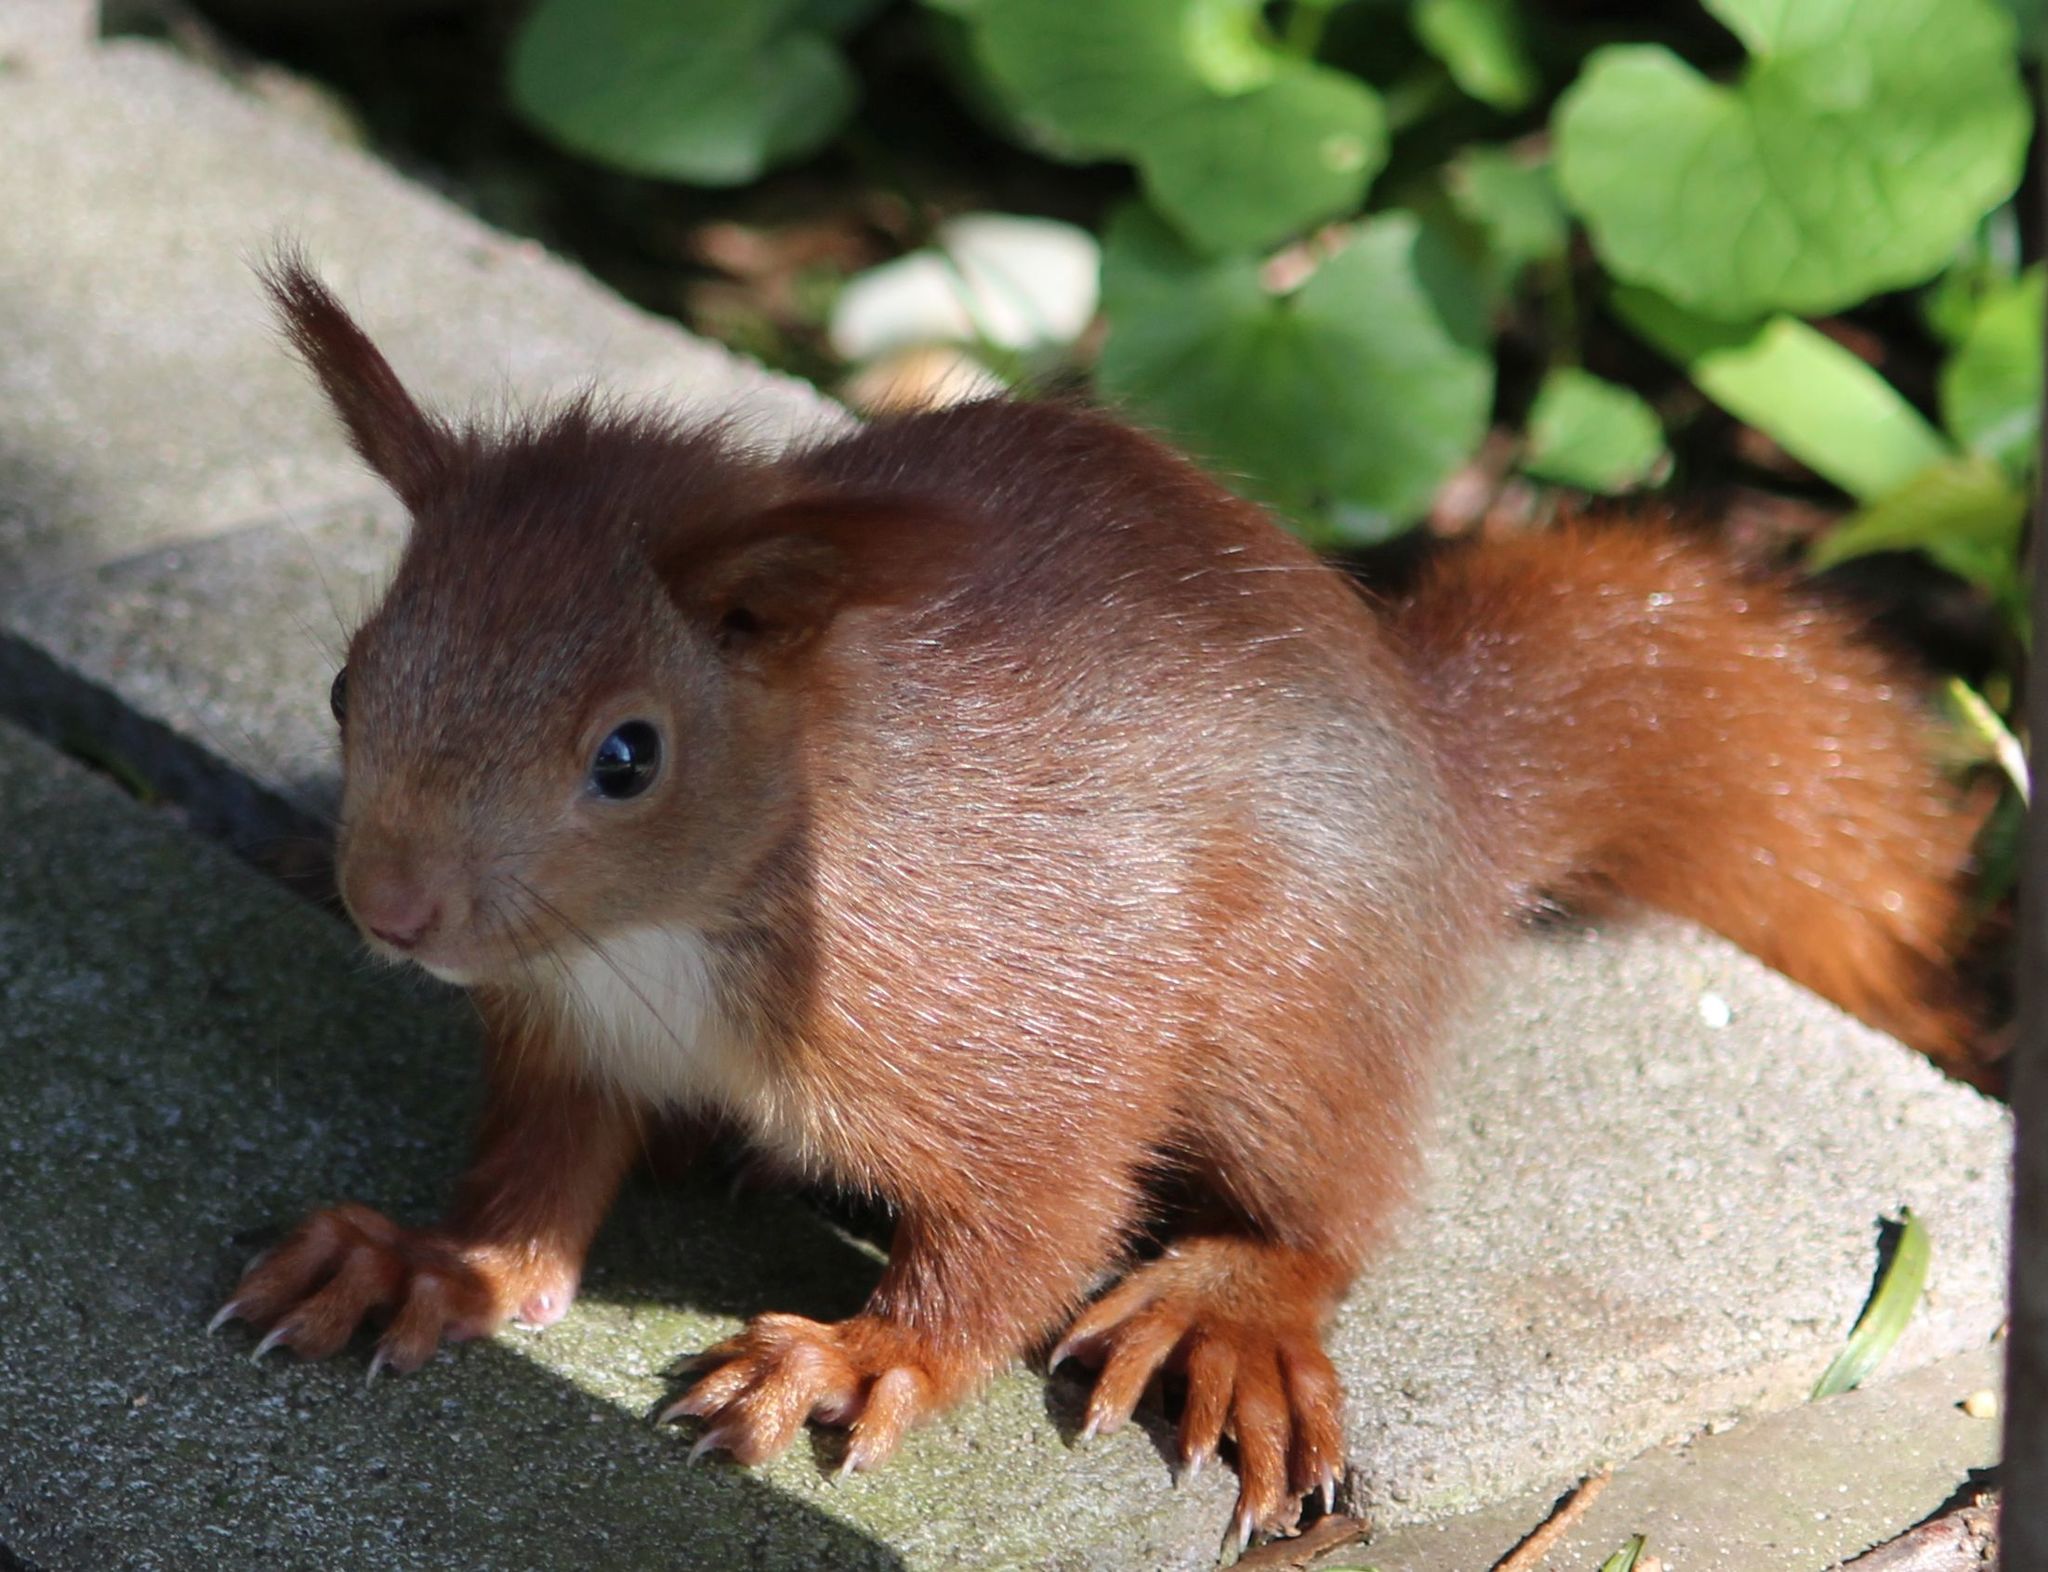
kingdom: Animalia
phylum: Chordata
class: Mammalia
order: Rodentia
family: Sciuridae
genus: Sciurus
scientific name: Sciurus vulgaris
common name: Eurasian red squirrel
